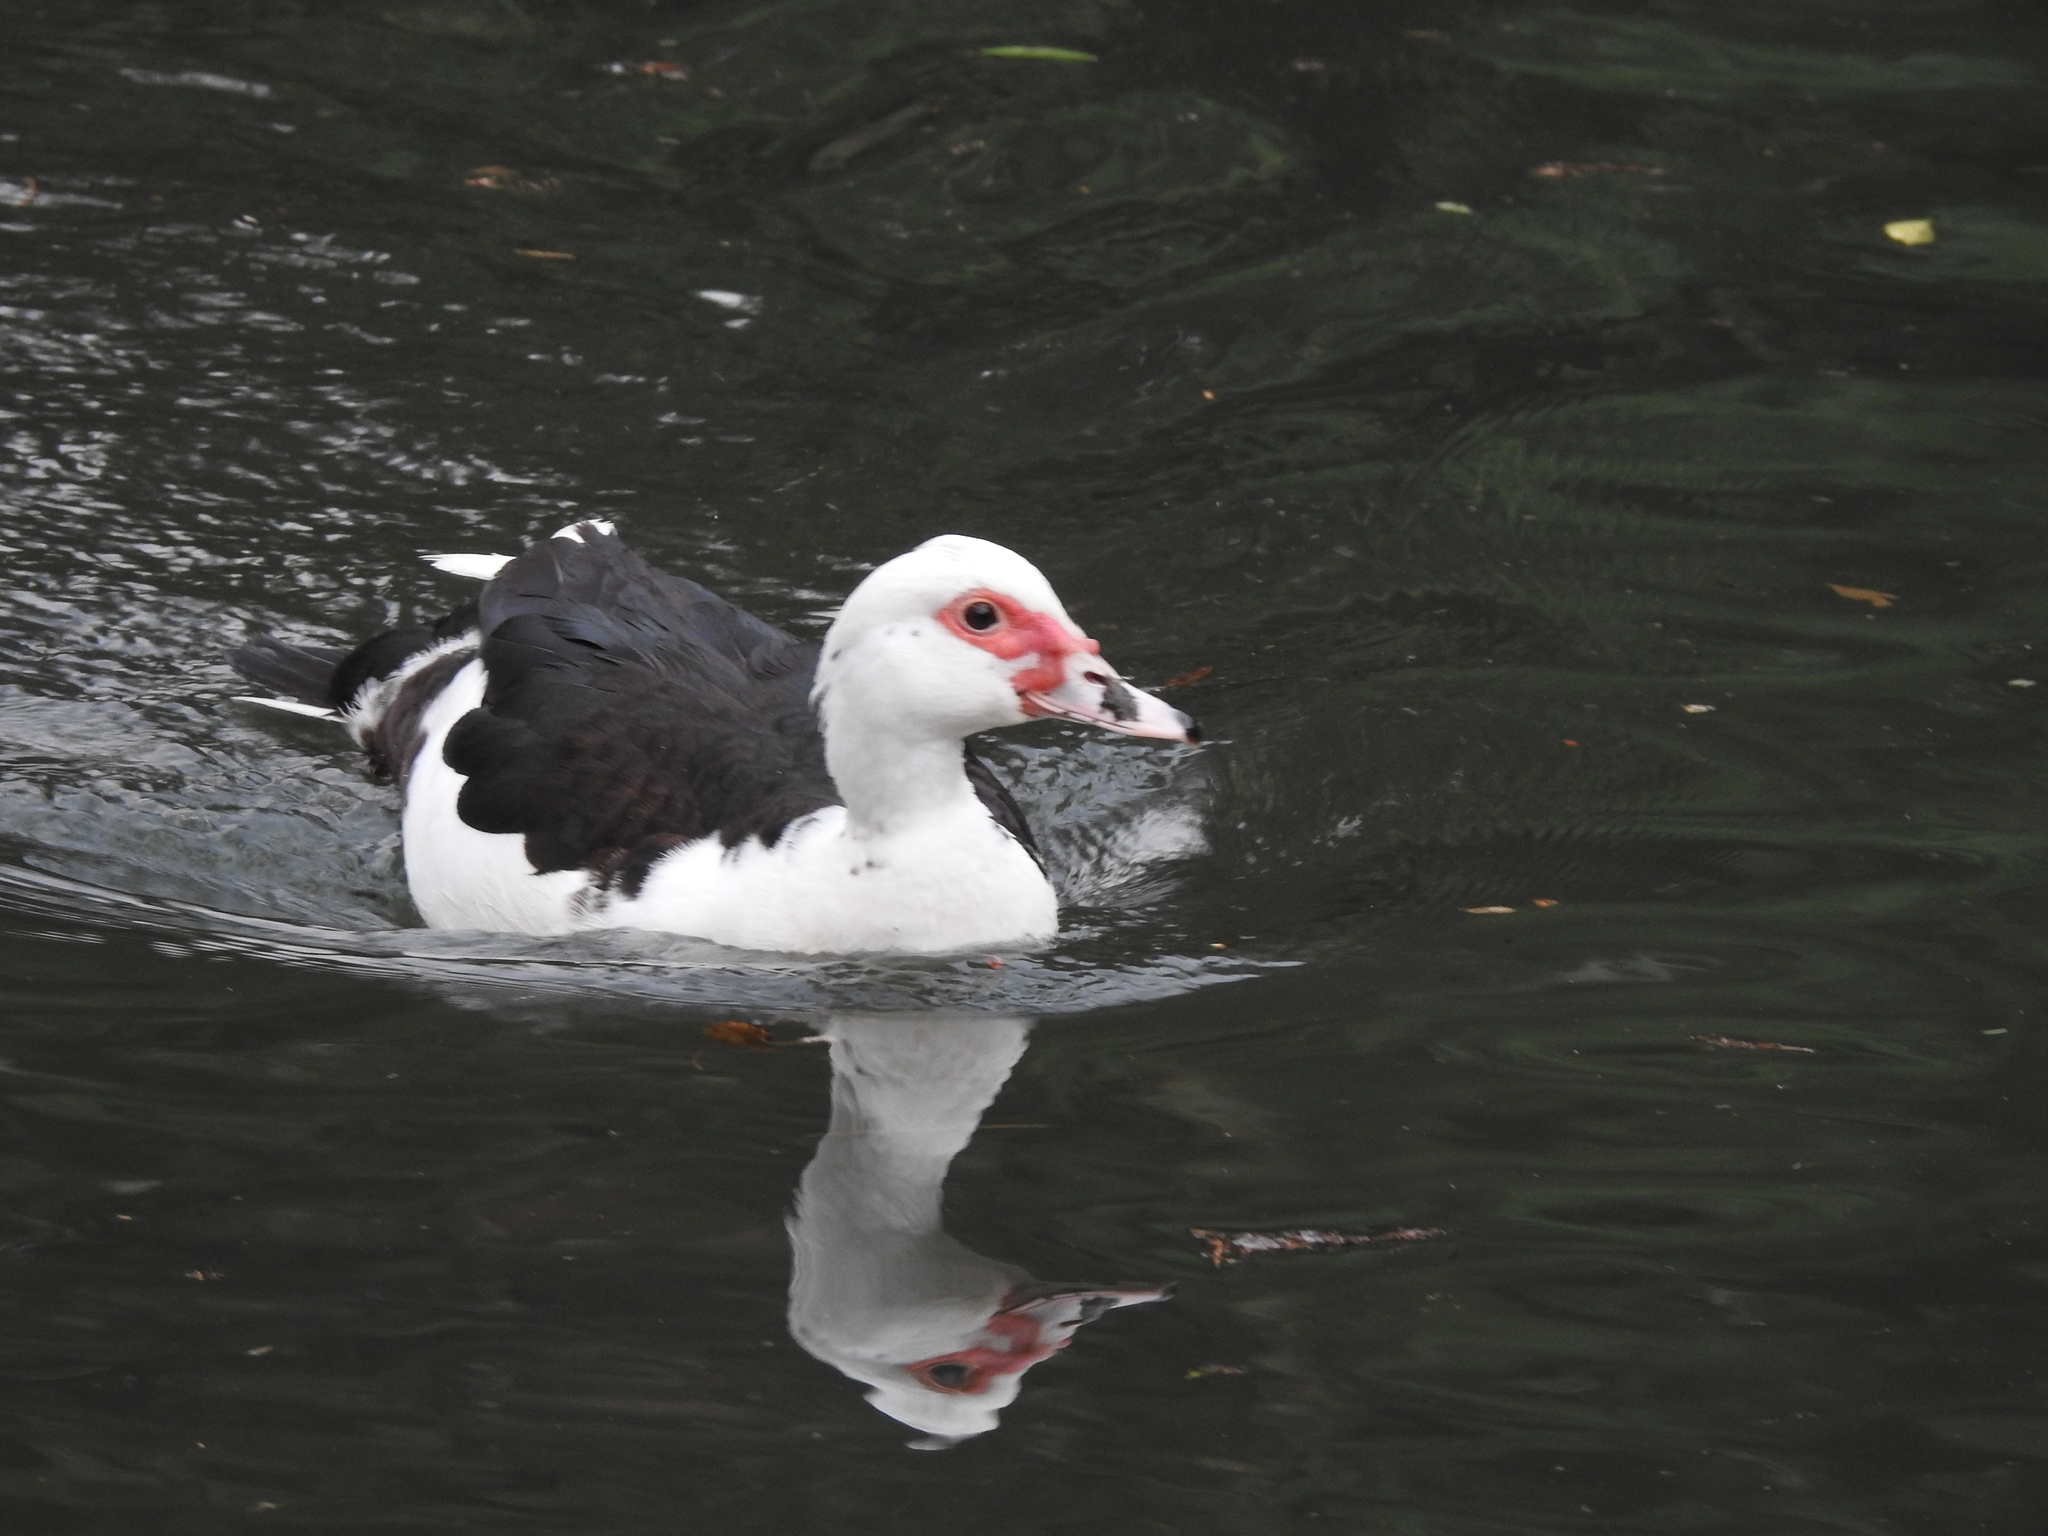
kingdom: Animalia
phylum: Chordata
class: Aves
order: Anseriformes
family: Anatidae
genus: Cairina
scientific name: Cairina moschata
